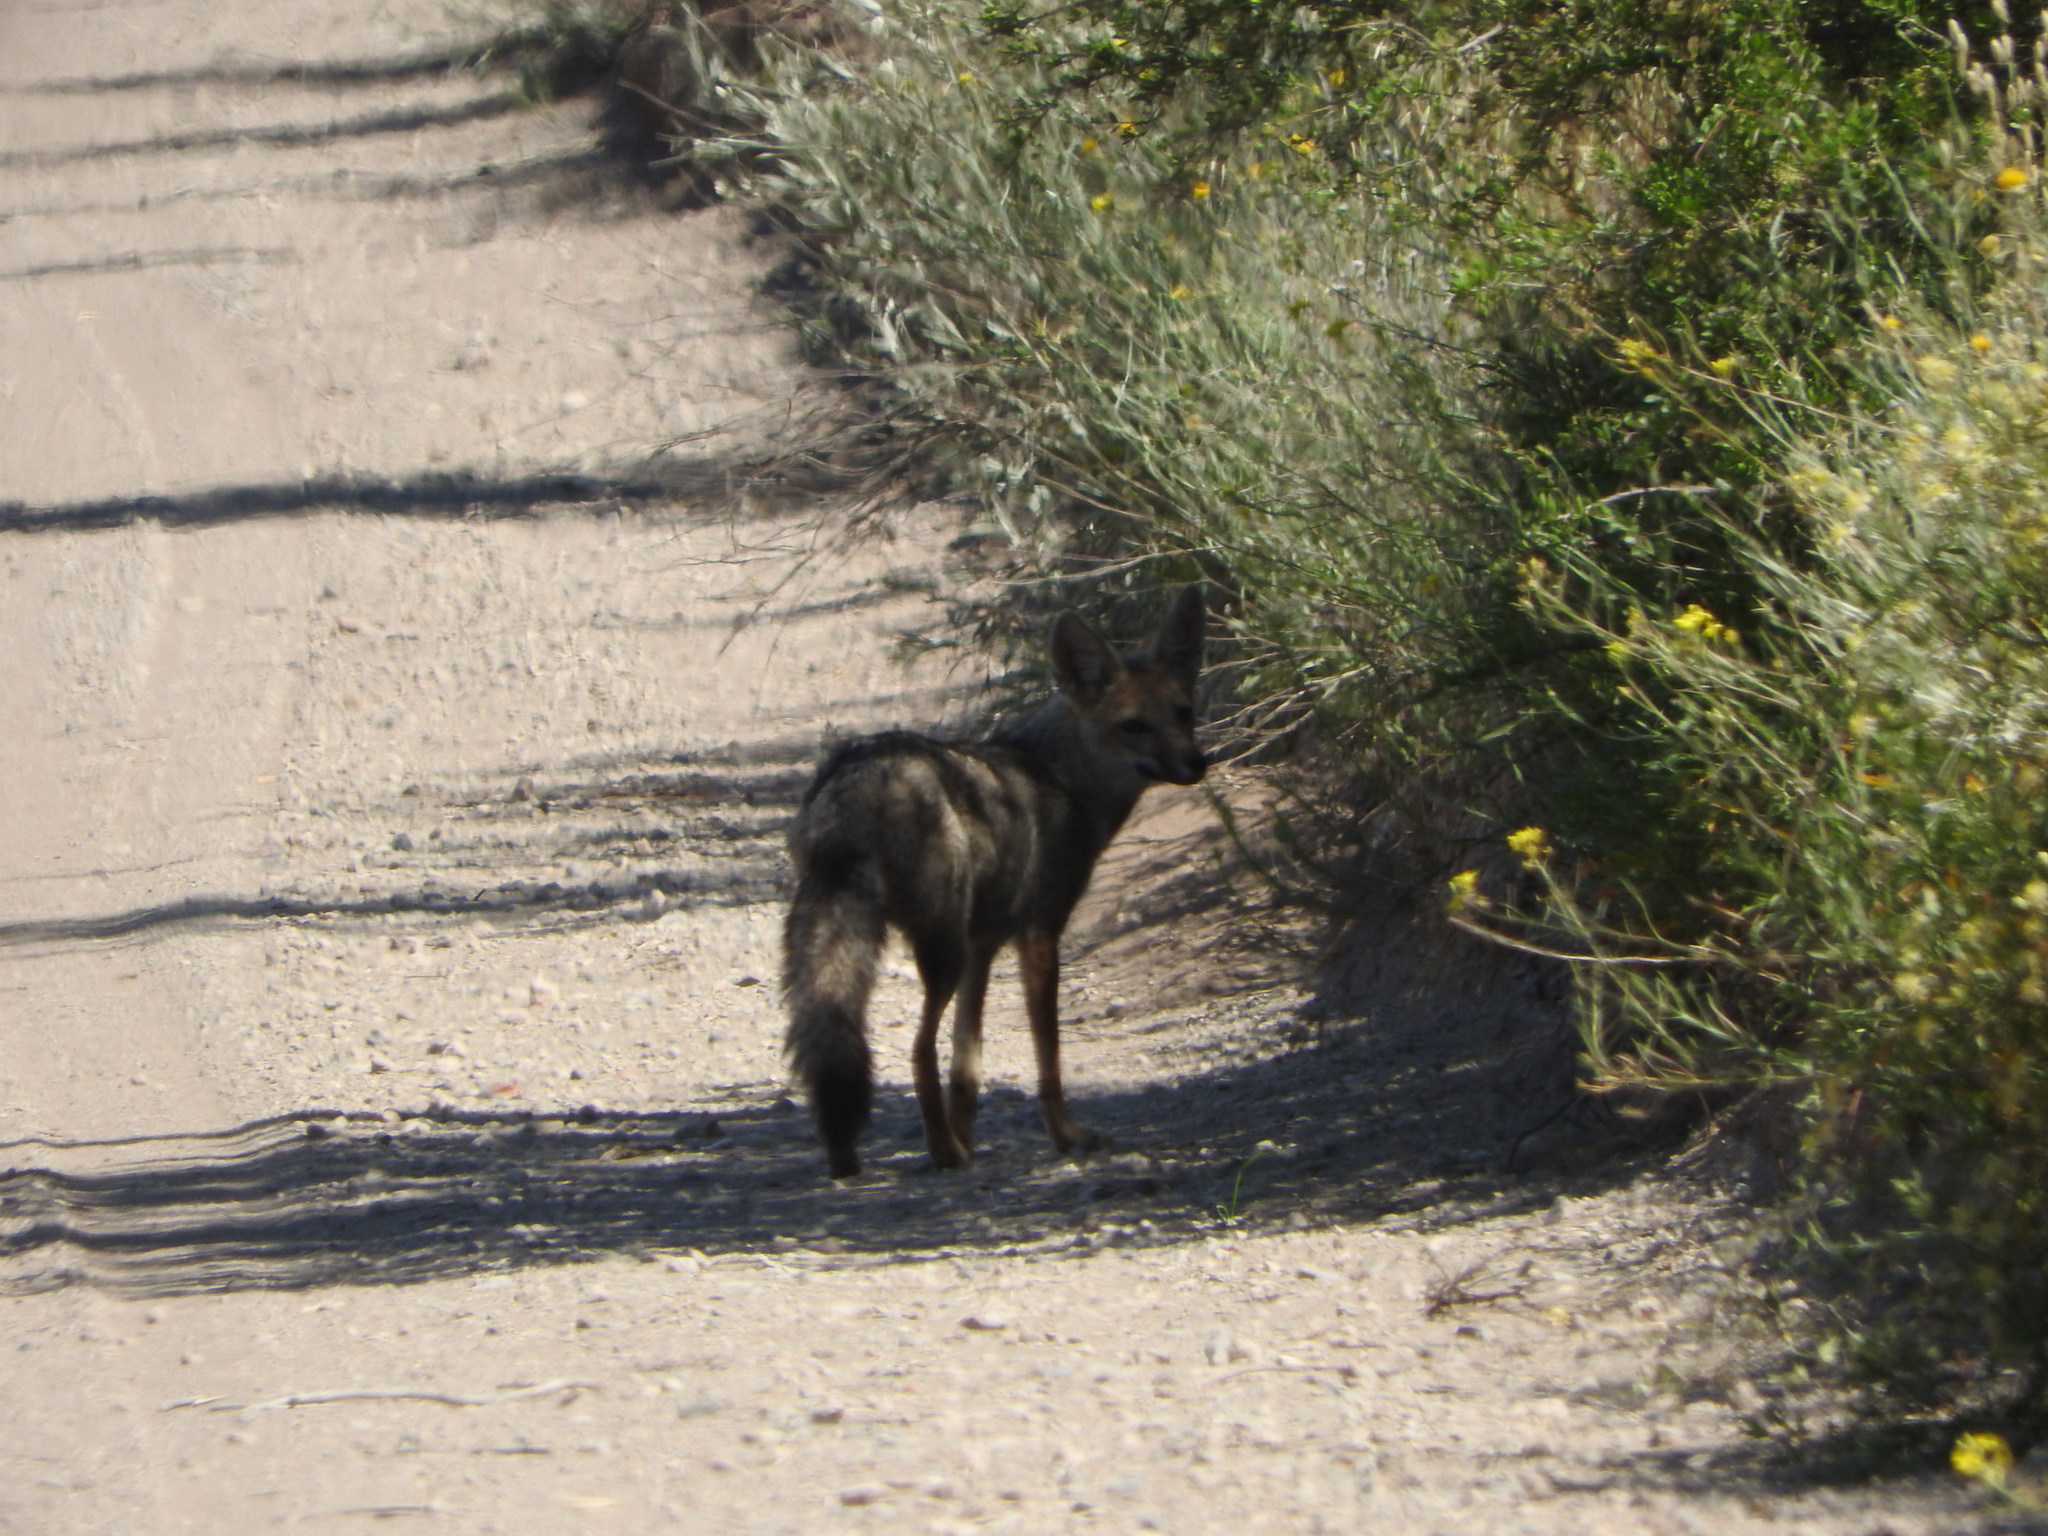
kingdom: Animalia
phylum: Chordata
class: Mammalia
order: Carnivora
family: Canidae
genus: Lycalopex
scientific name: Lycalopex gymnocercus
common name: Pampas fox
